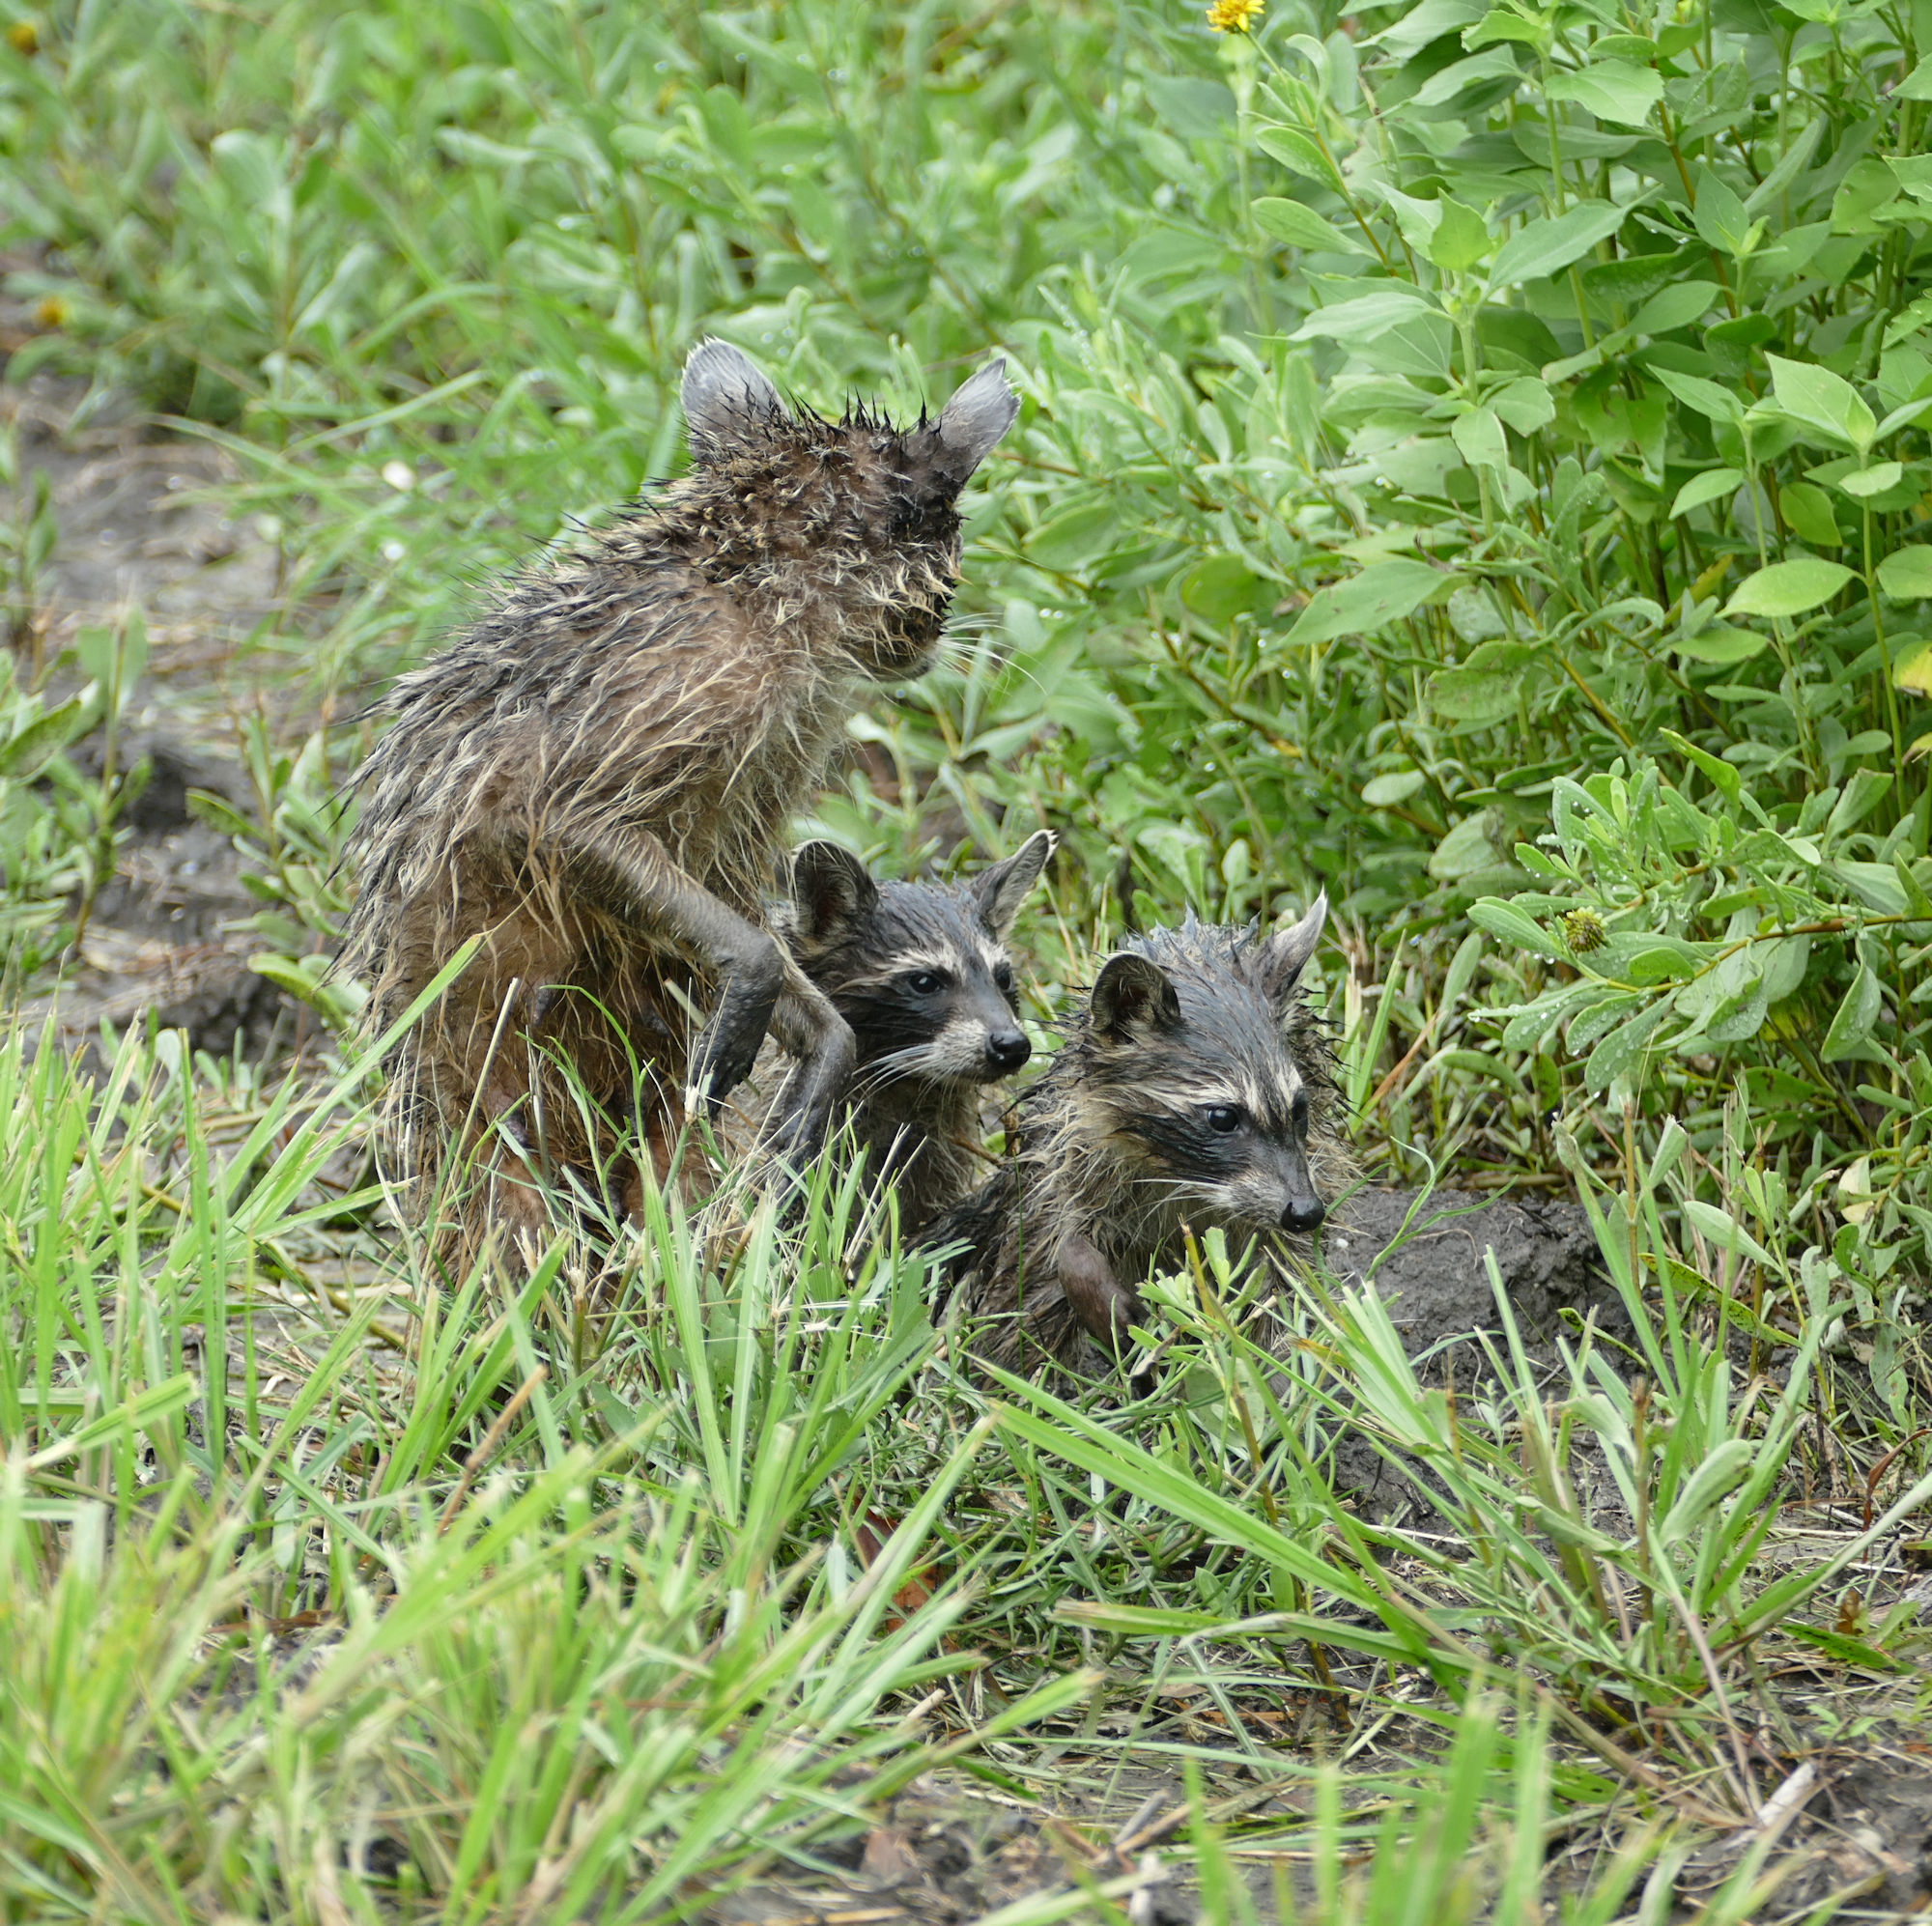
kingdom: Animalia
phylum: Chordata
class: Mammalia
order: Carnivora
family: Procyonidae
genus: Procyon
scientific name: Procyon lotor
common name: Raccoon
